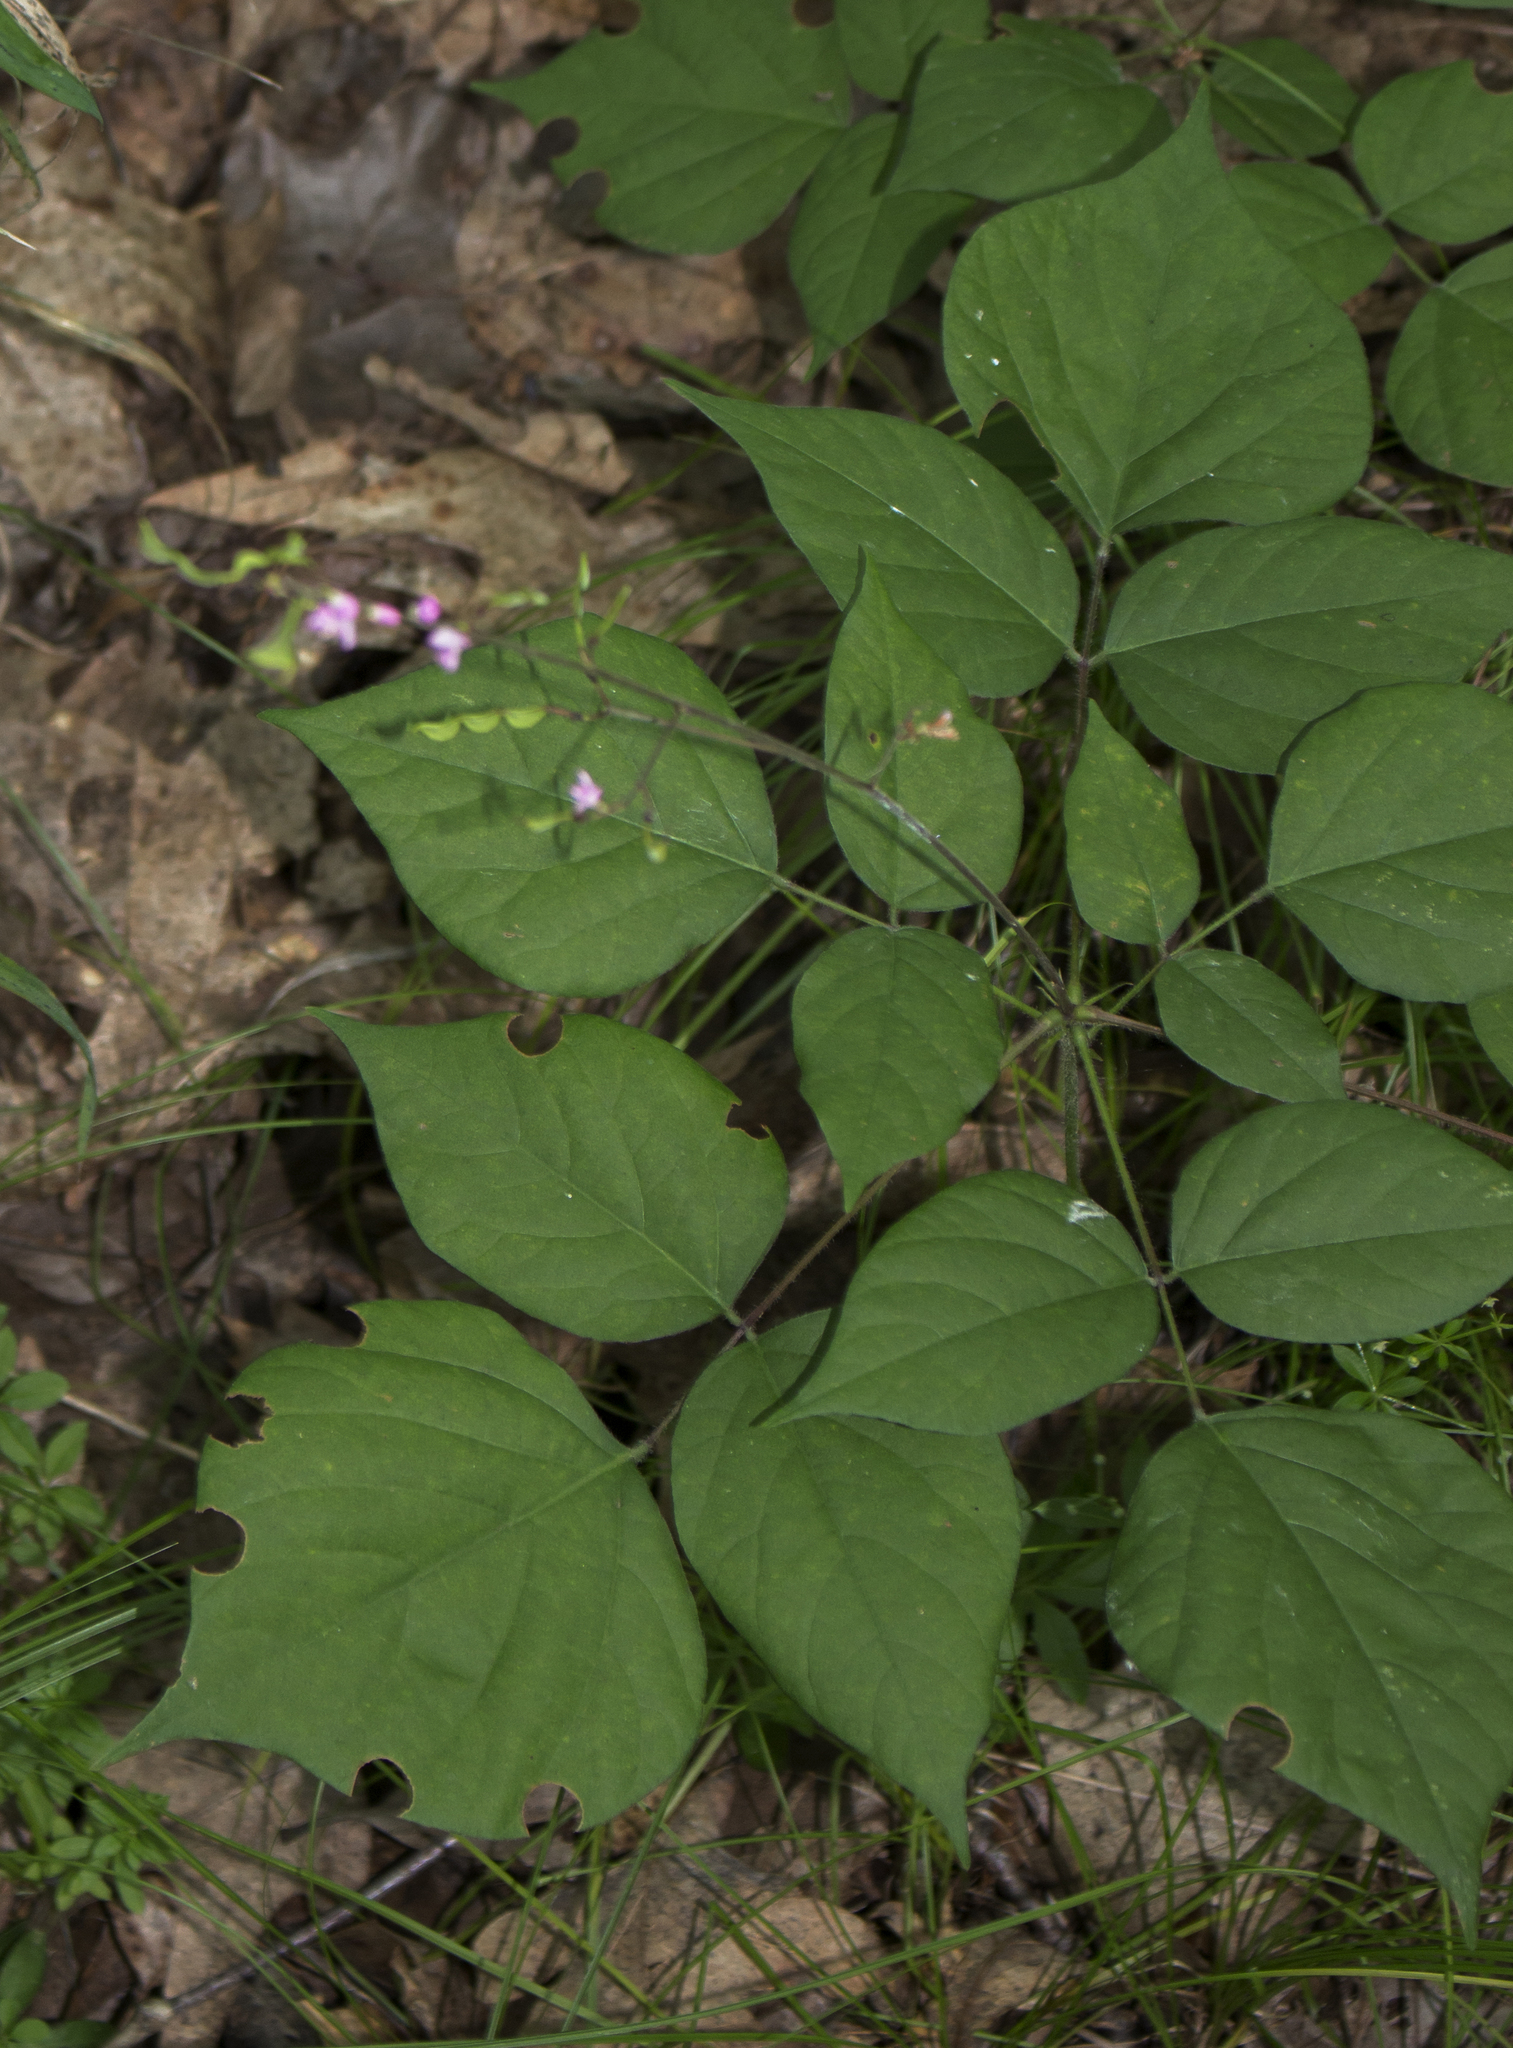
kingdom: Plantae
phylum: Tracheophyta
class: Magnoliopsida
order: Fabales
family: Fabaceae
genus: Hylodesmum
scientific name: Hylodesmum glutinosum
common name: Clustered-leaved tick-trefoil
